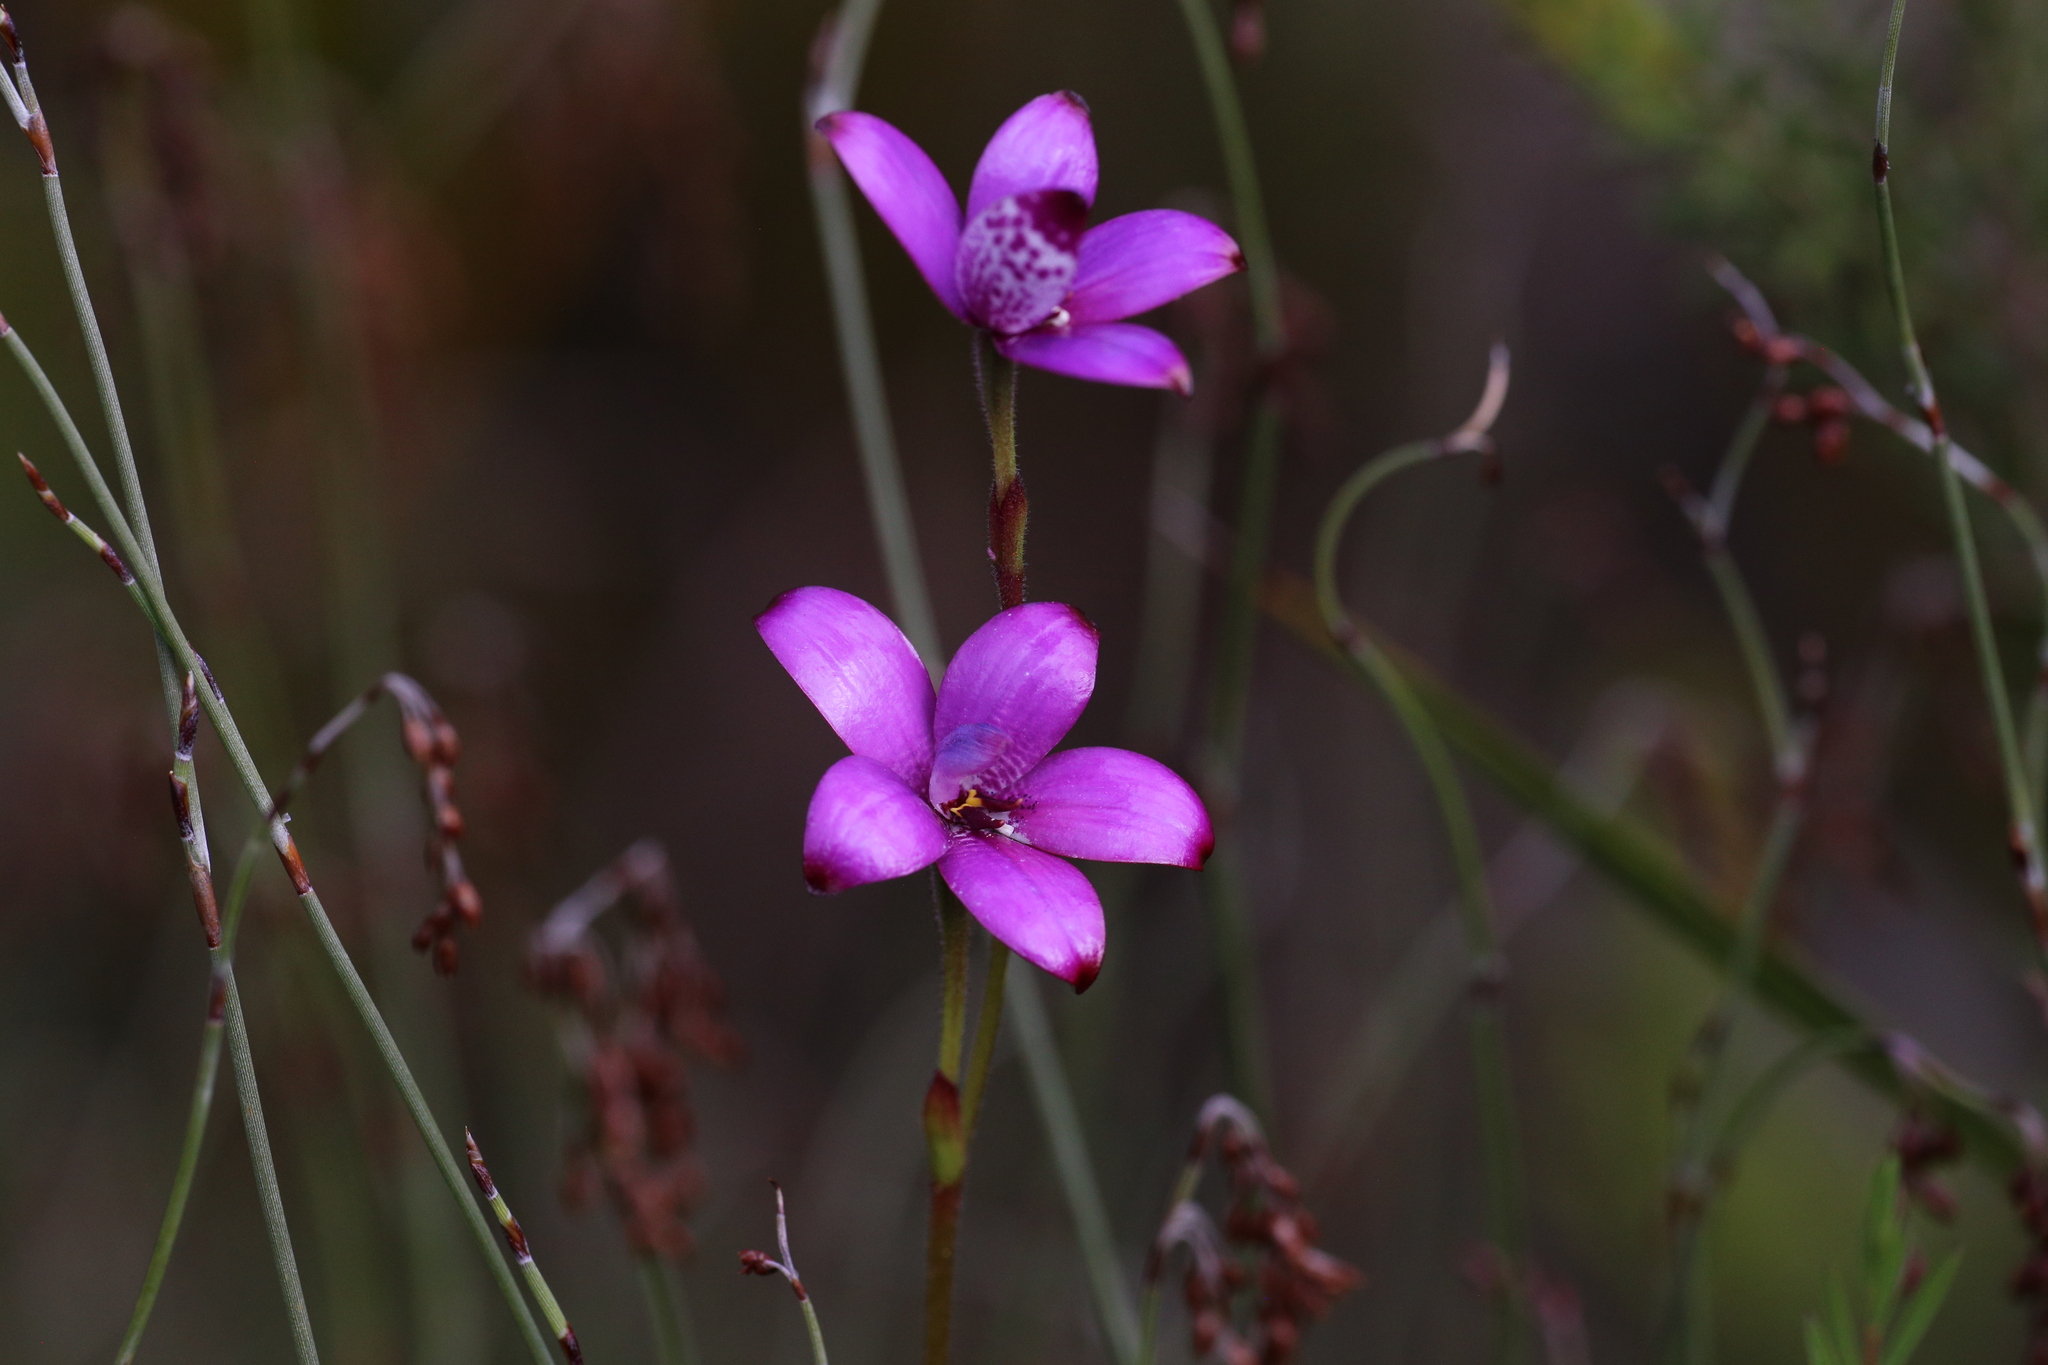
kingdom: Plantae
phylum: Tracheophyta
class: Liliopsida
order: Asparagales
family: Orchidaceae
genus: Caladenia
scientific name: Caladenia brunonis
